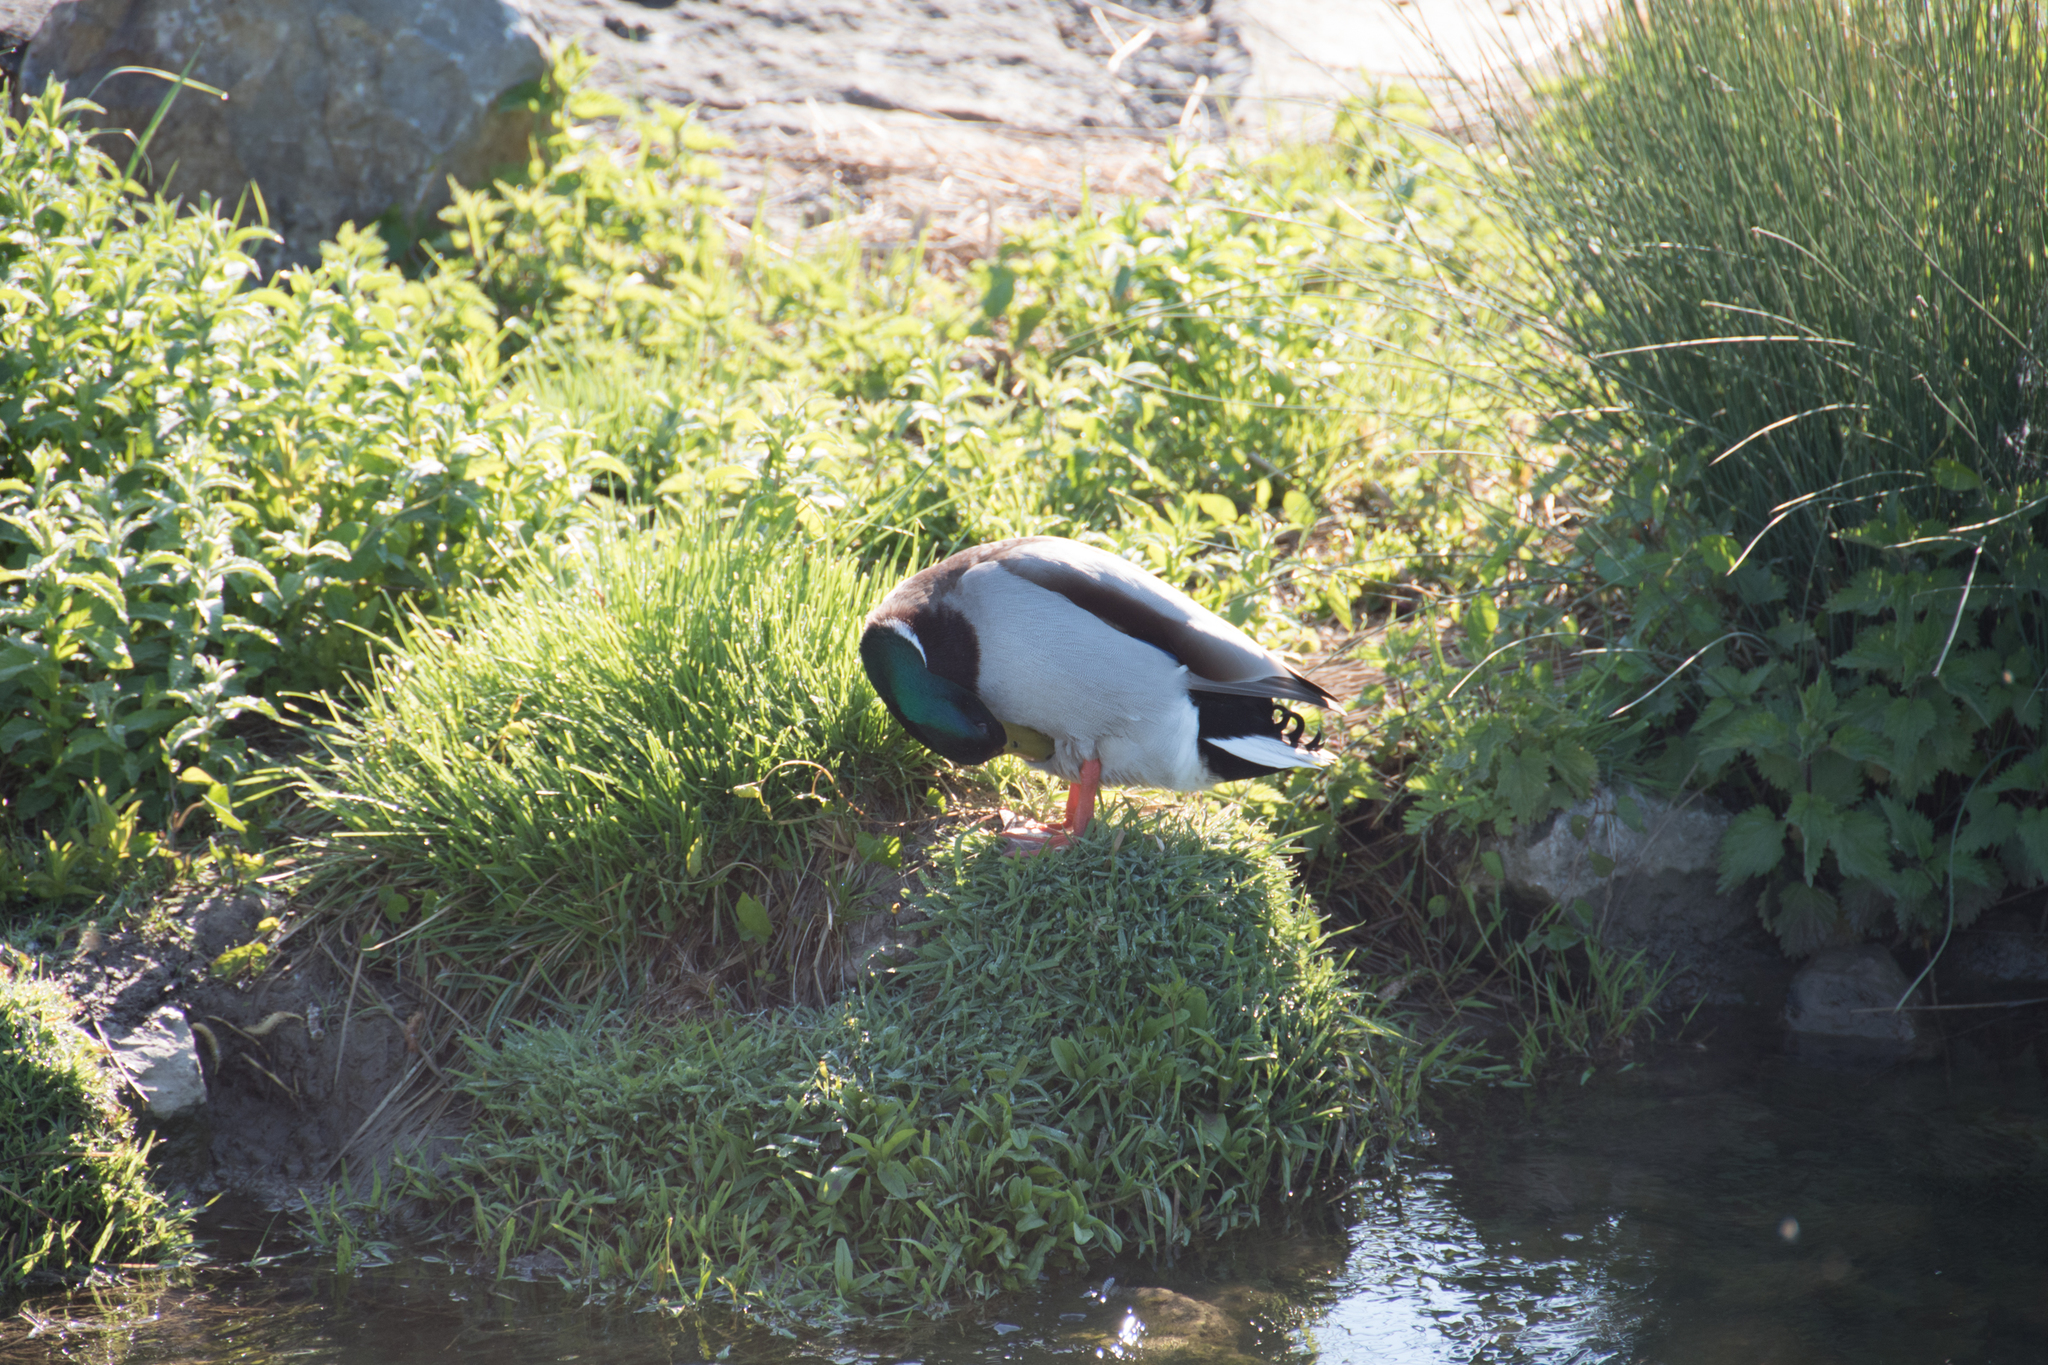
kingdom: Animalia
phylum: Chordata
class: Aves
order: Anseriformes
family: Anatidae
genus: Anas
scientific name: Anas platyrhynchos
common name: Mallard
